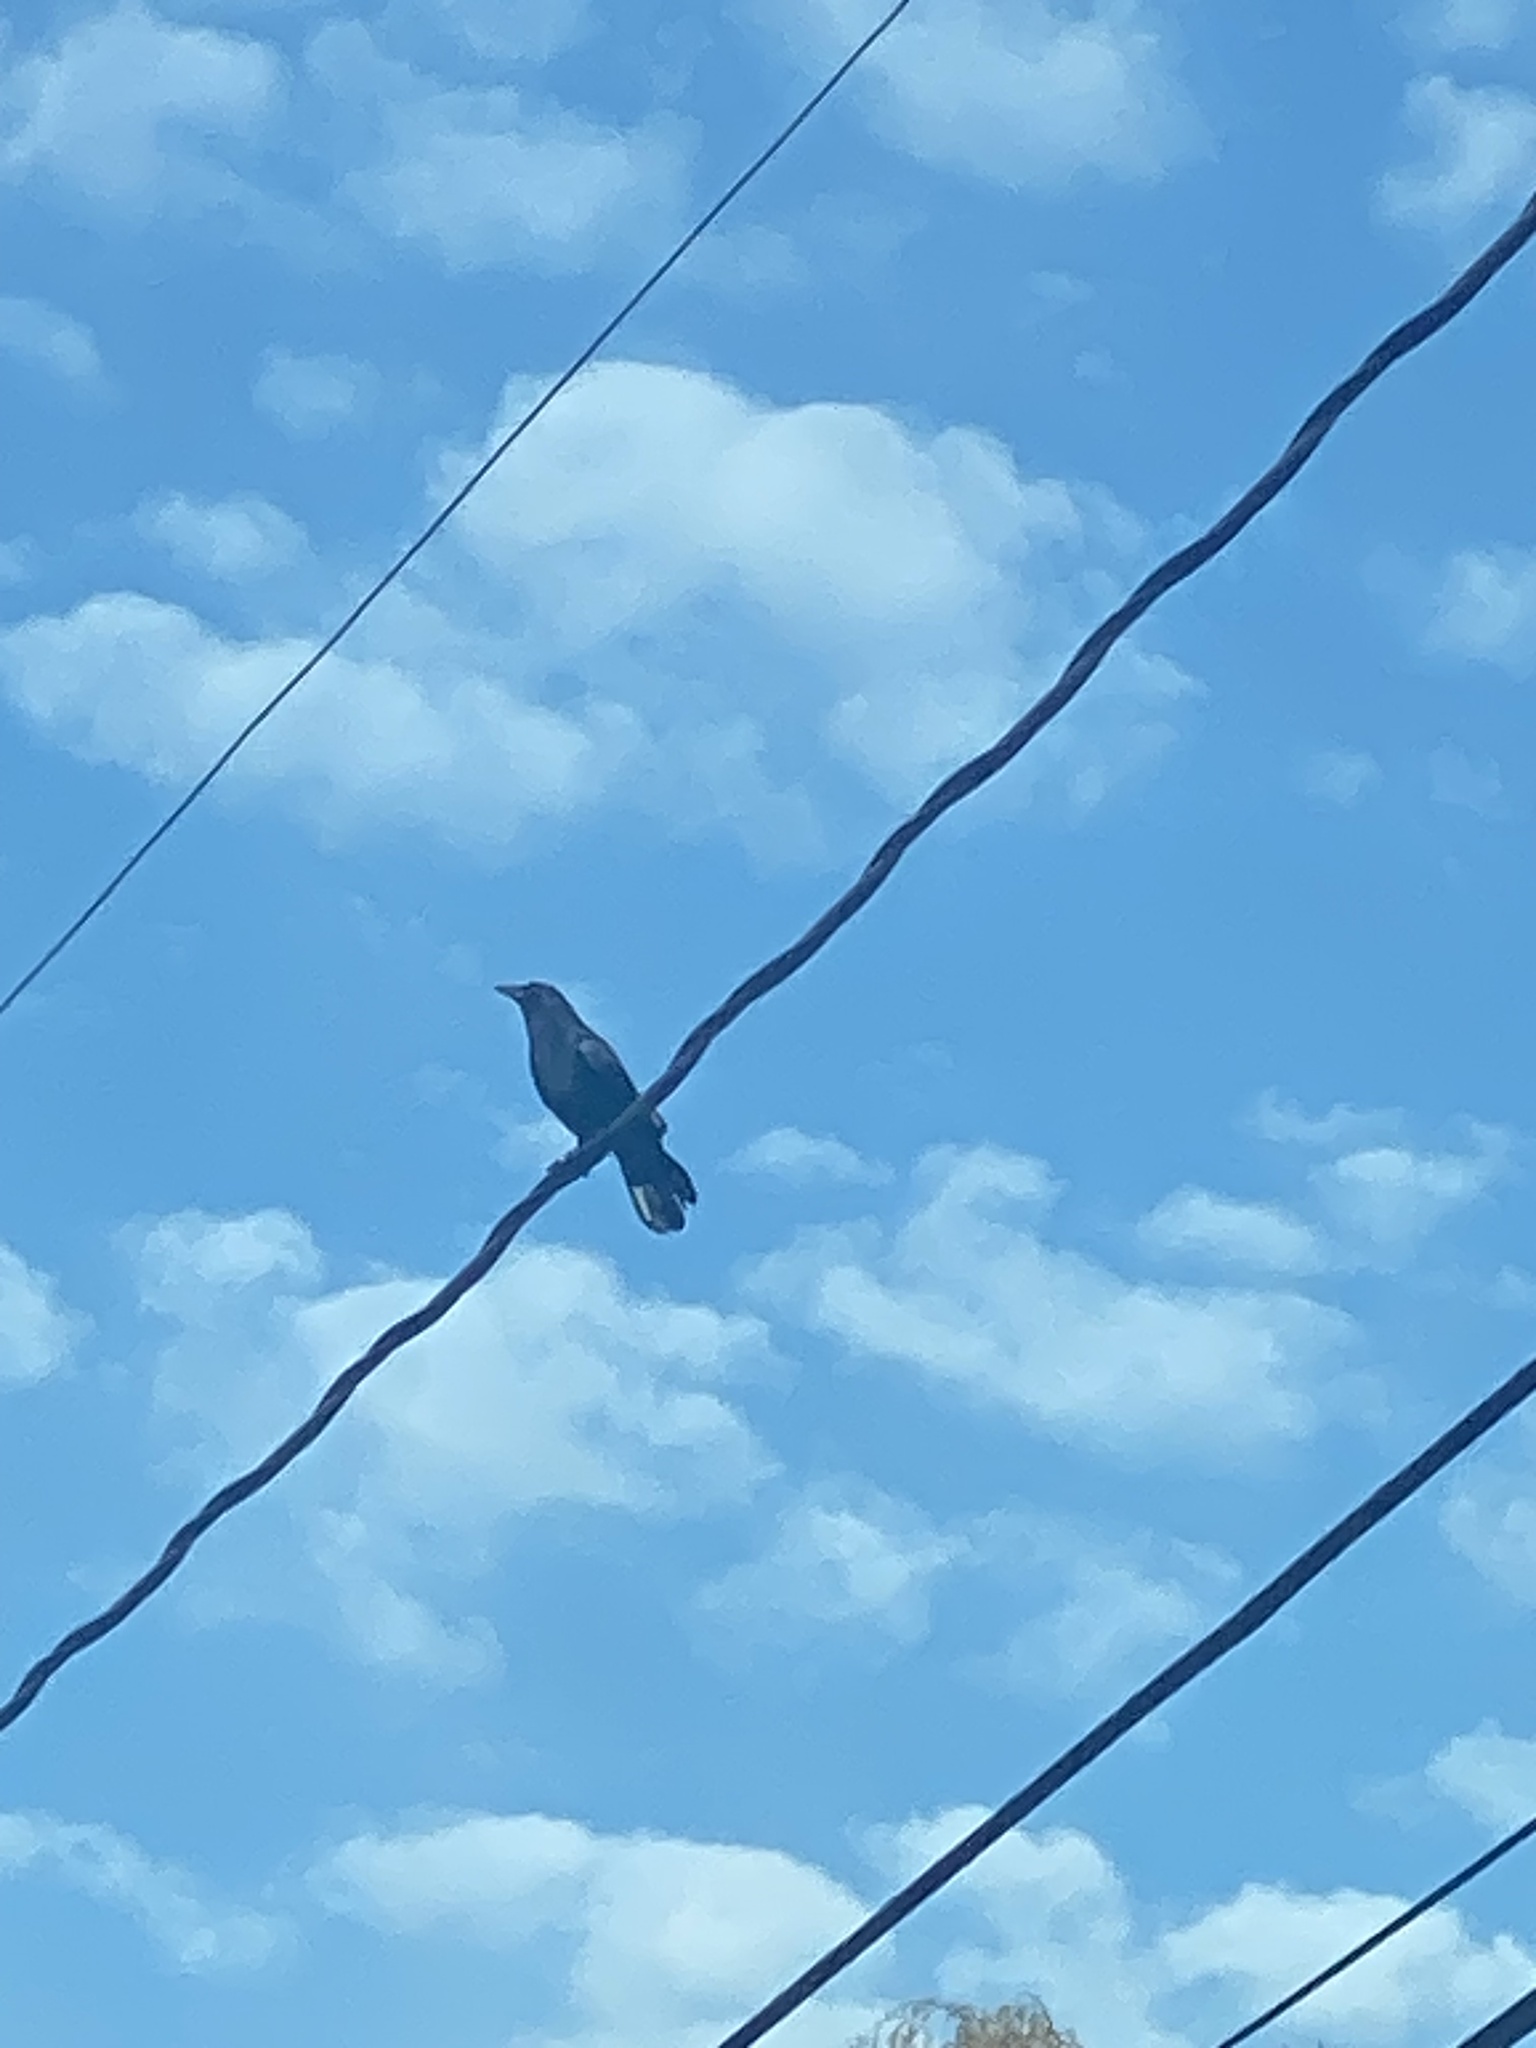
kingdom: Animalia
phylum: Chordata
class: Aves
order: Passeriformes
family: Corvidae
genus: Corvus
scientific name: Corvus brachyrhynchos
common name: American crow
